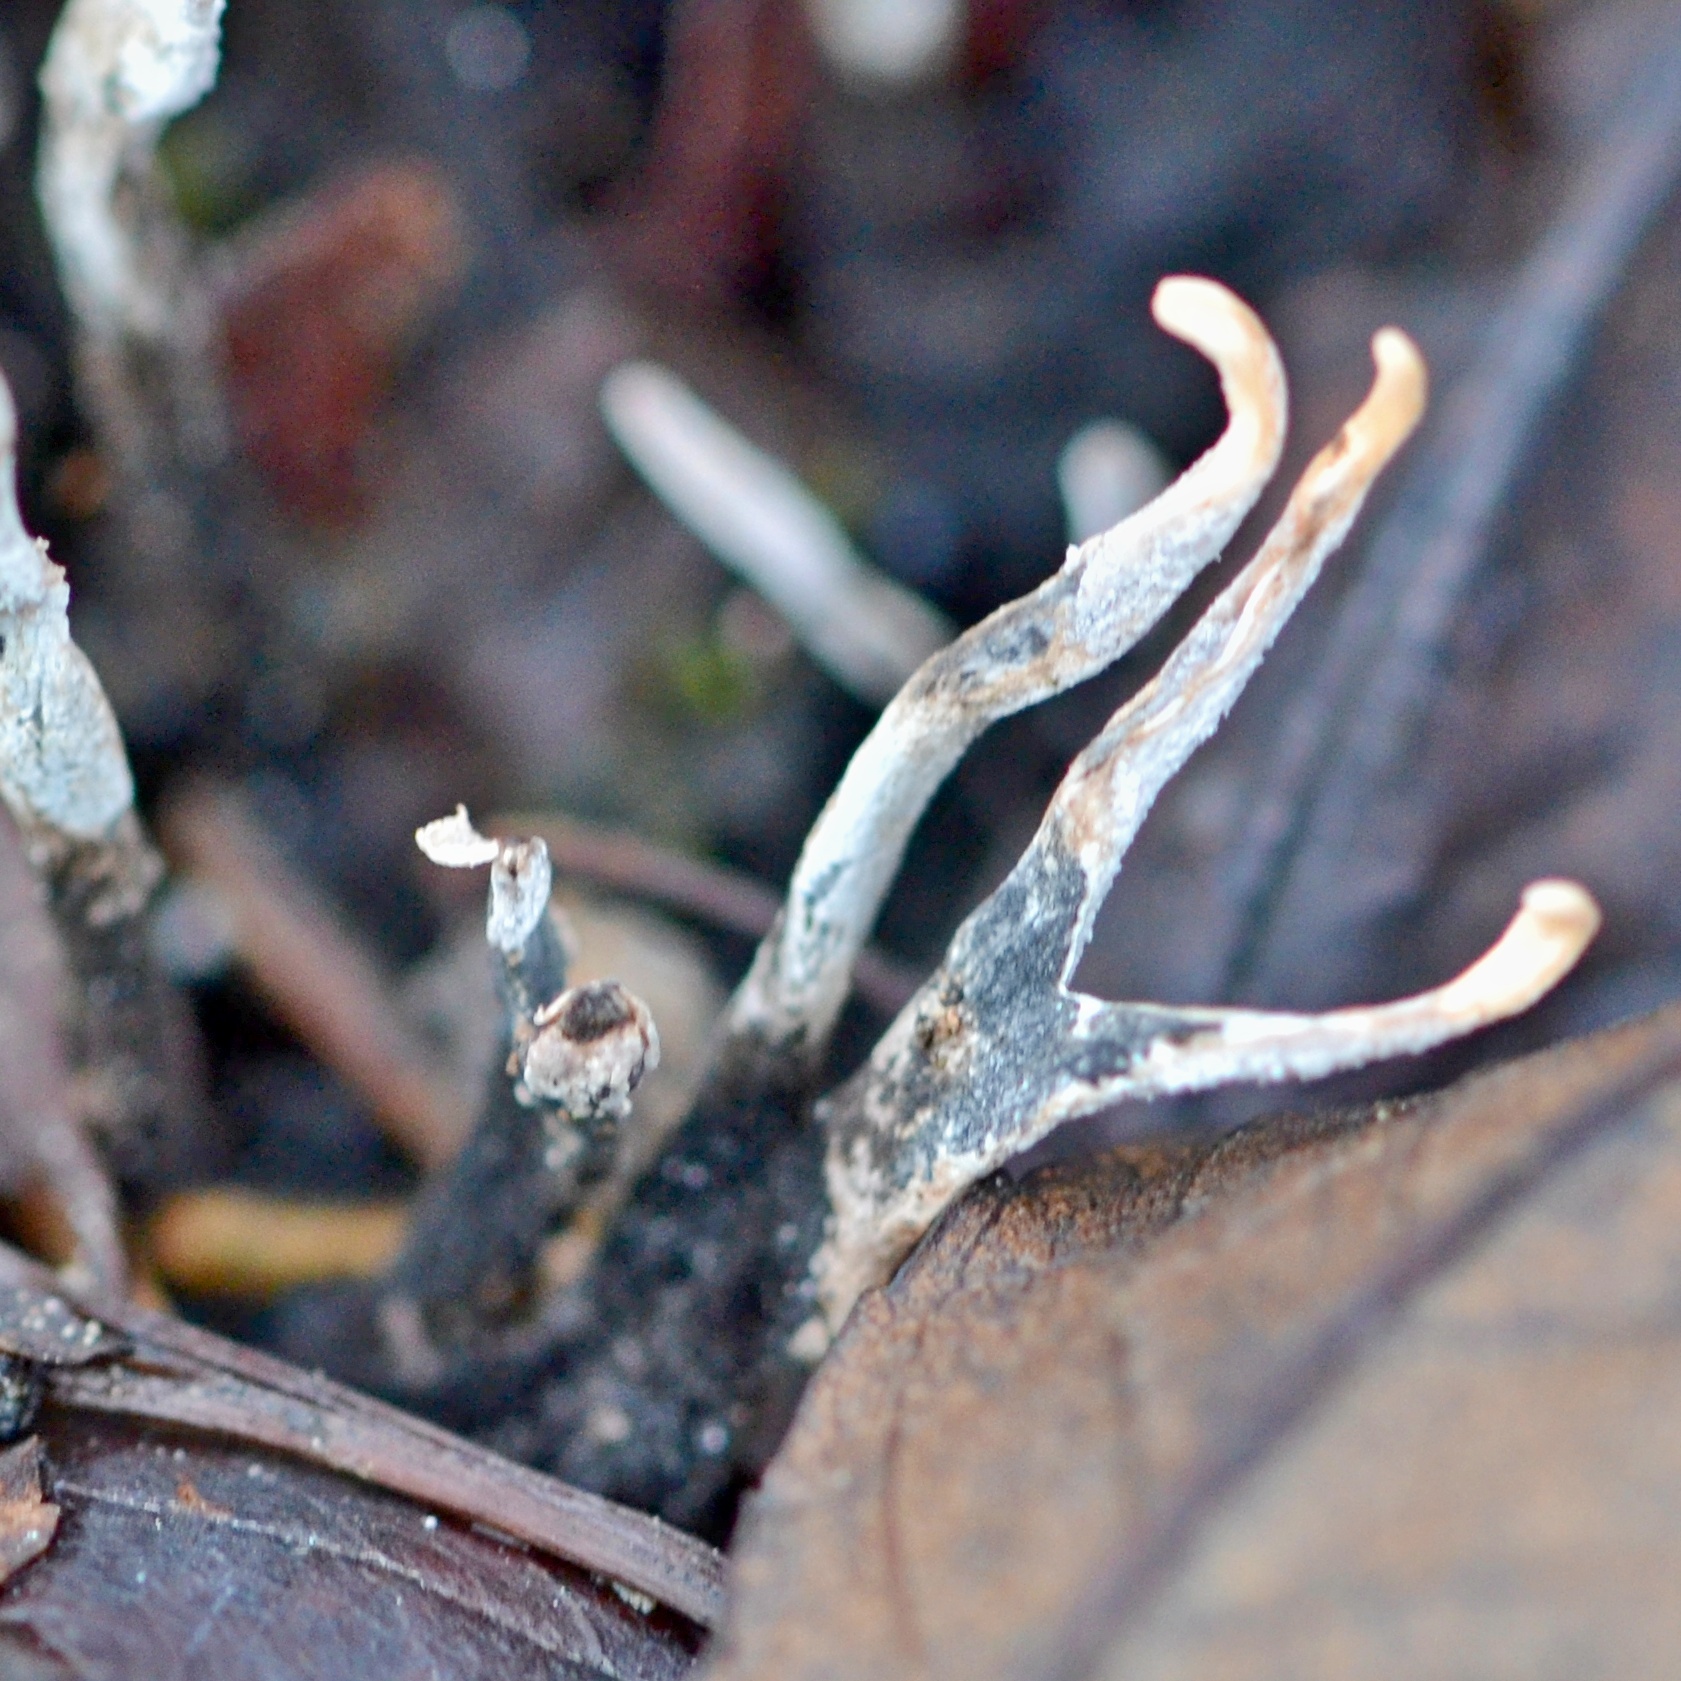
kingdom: Fungi
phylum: Ascomycota
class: Sordariomycetes
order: Xylariales
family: Xylariaceae
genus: Xylaria
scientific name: Xylaria hypoxylon
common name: Candle-snuff fungus
